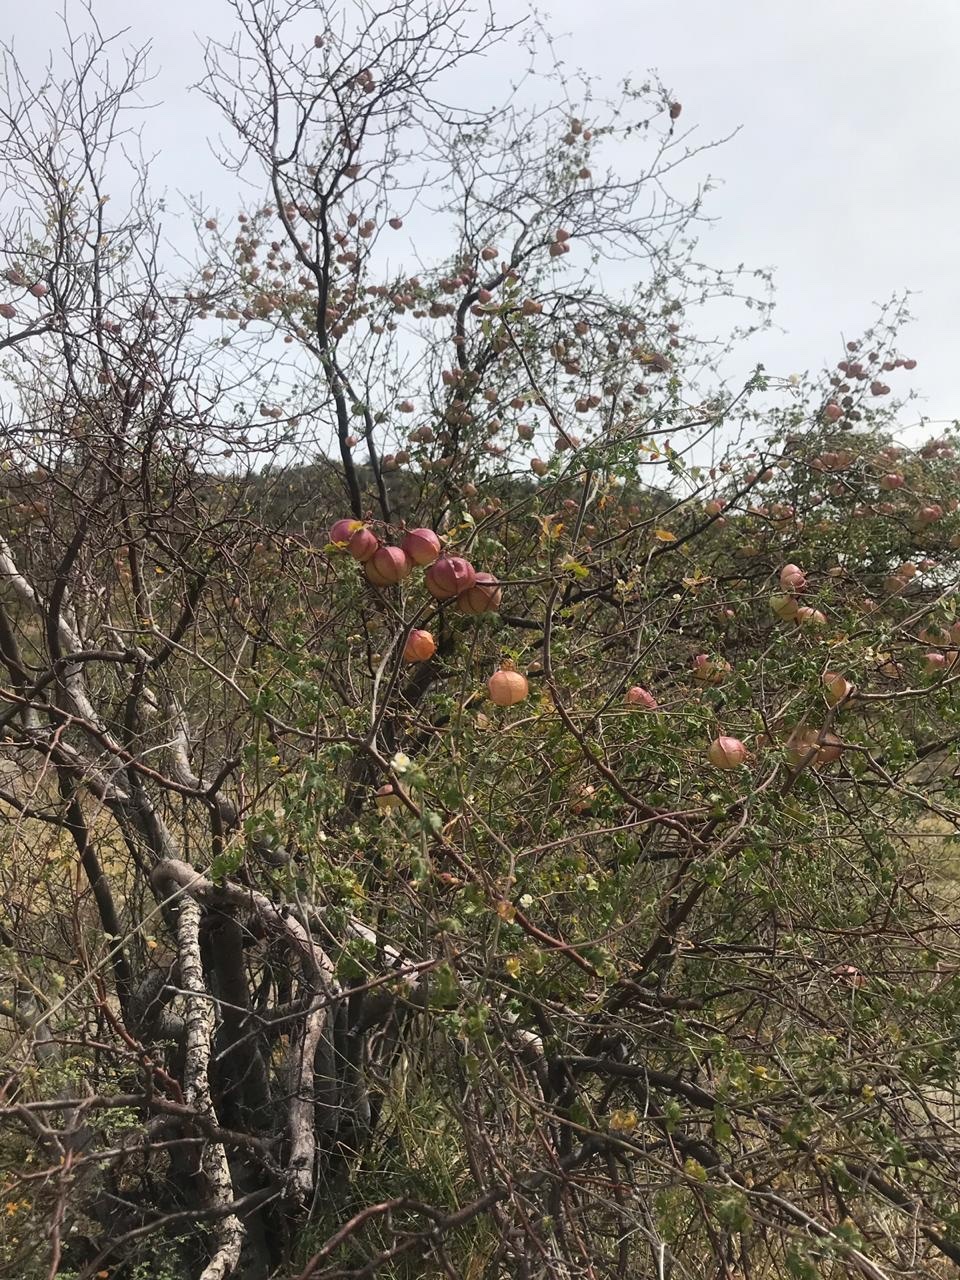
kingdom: Plantae
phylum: Tracheophyta
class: Magnoliopsida
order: Sapindales
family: Sapindaceae
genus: Cardiospermum
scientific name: Cardiospermum corindum
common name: Faux persil
